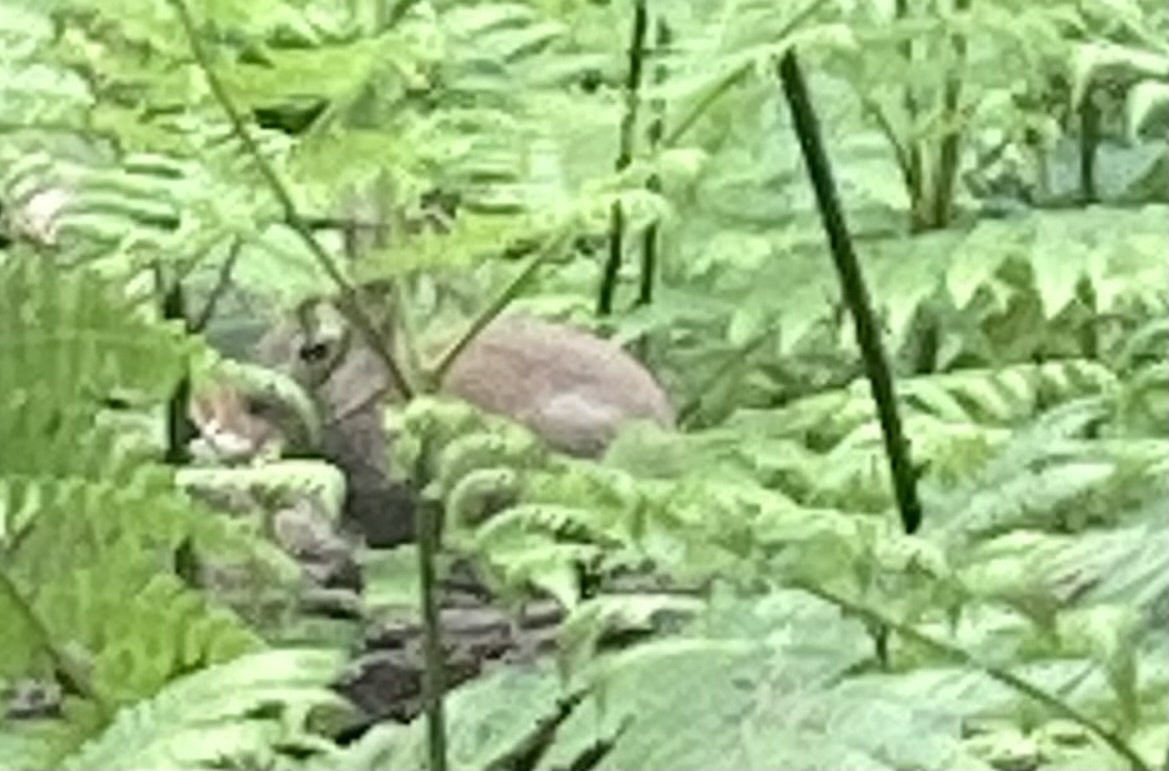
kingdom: Animalia
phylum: Chordata
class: Mammalia
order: Lagomorpha
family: Leporidae
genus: Oryctolagus
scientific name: Oryctolagus cuniculus
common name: European rabbit
